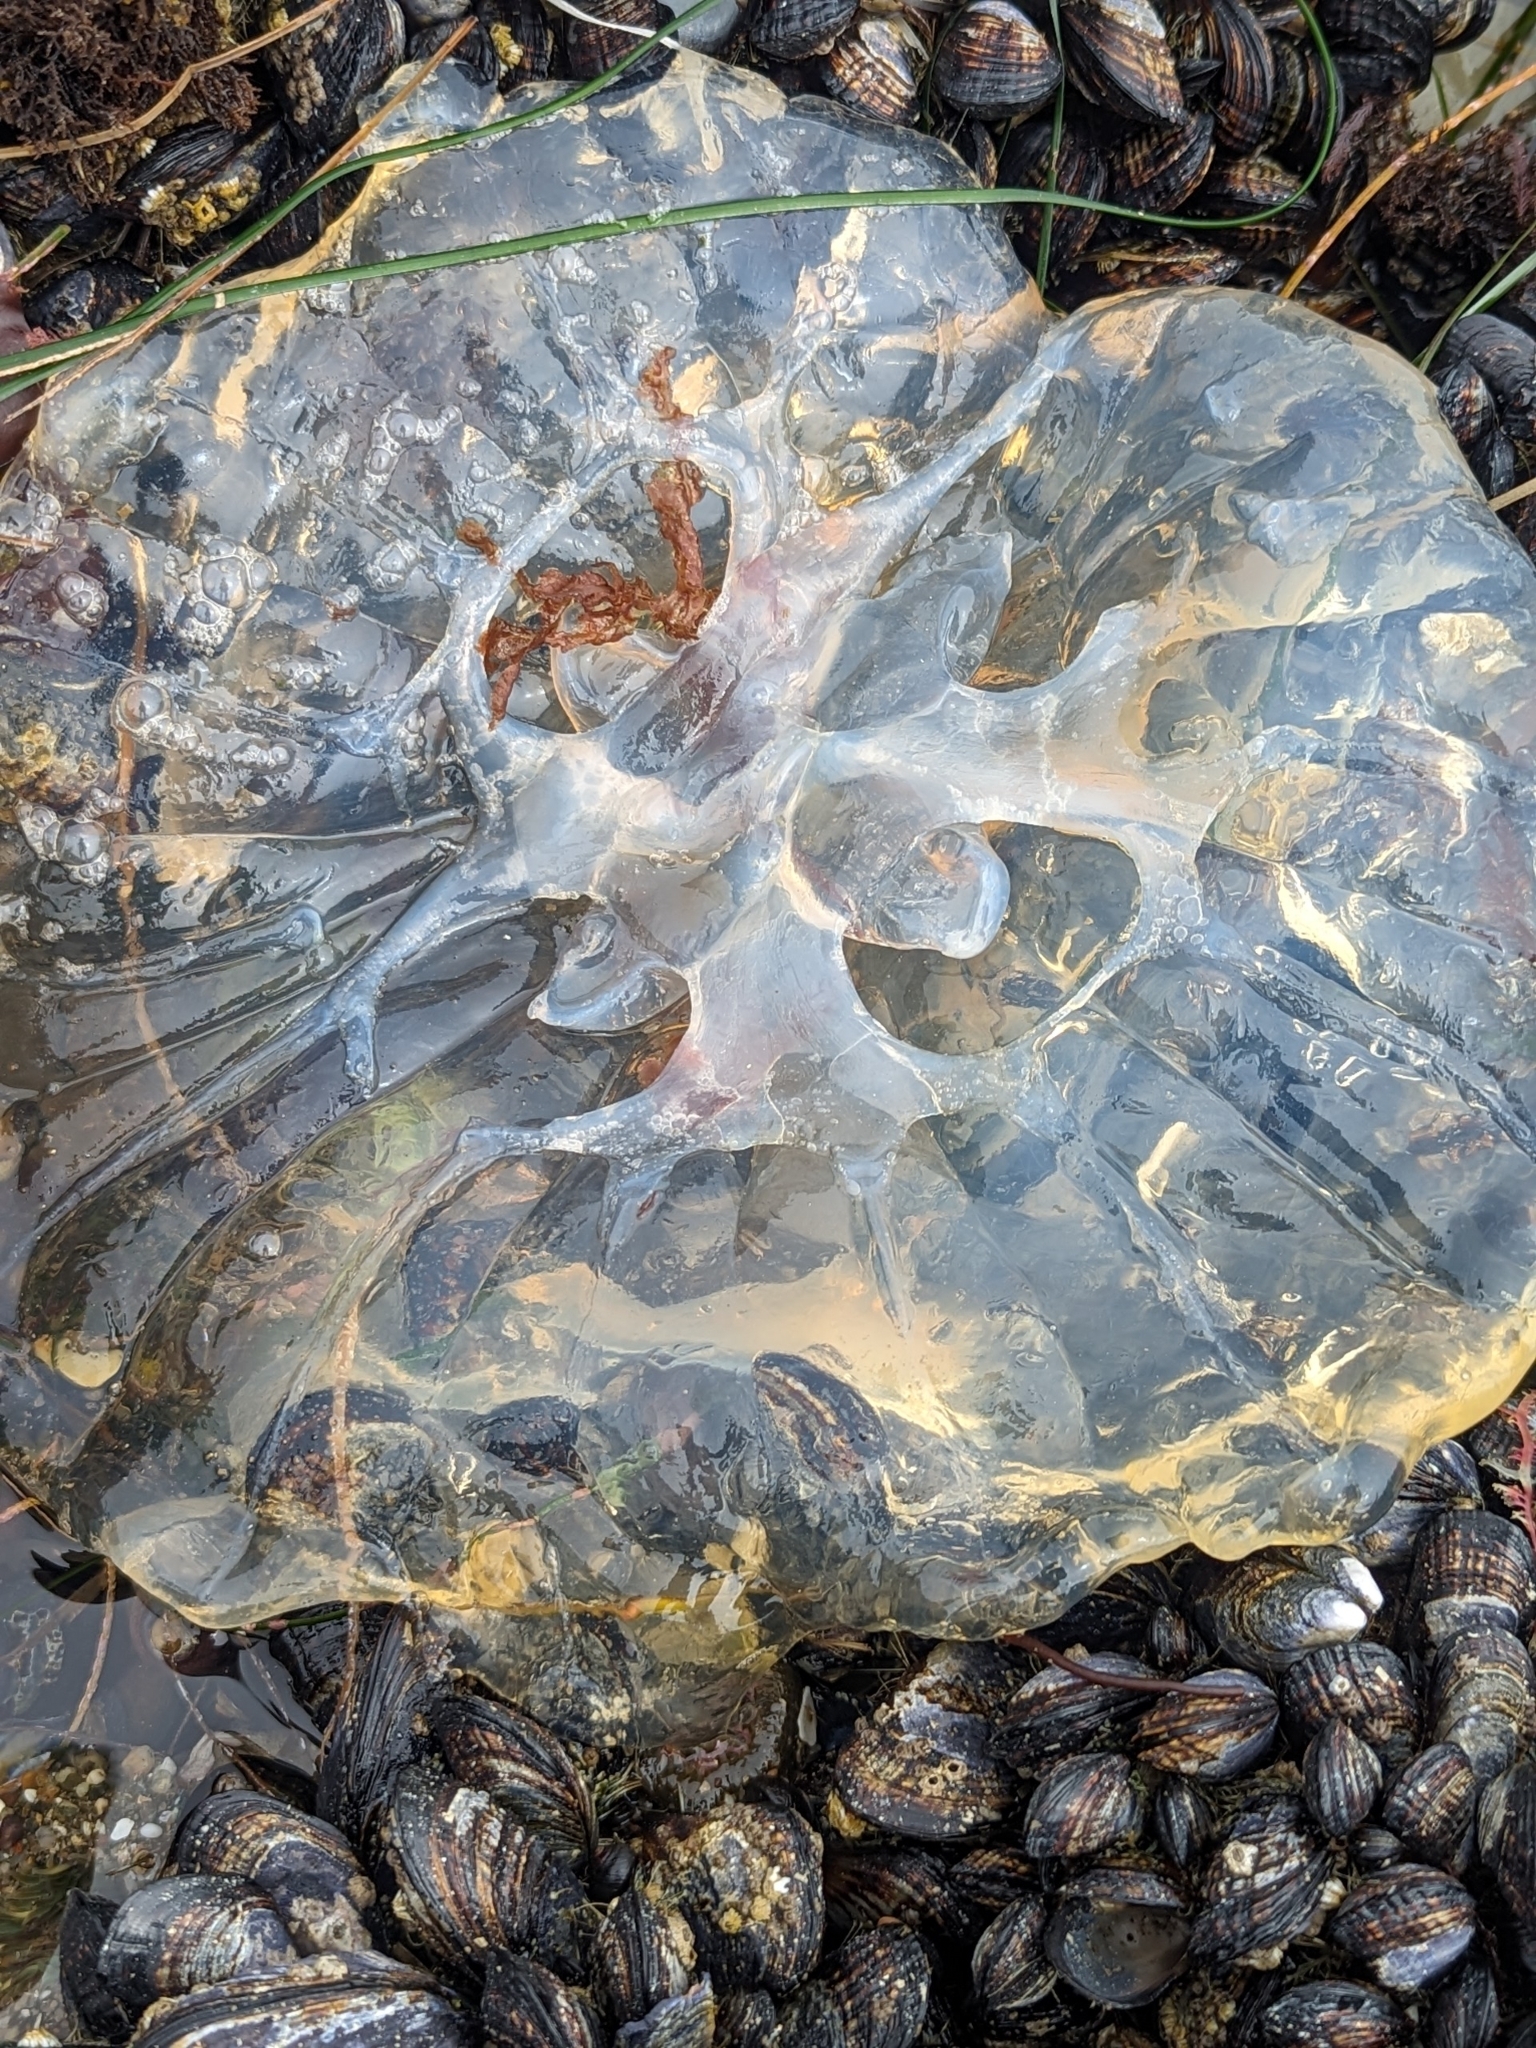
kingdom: Animalia
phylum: Cnidaria
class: Scyphozoa
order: Semaeostomeae
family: Pelagiidae
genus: Chrysaora
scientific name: Chrysaora fuscescens
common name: Sea nettle
